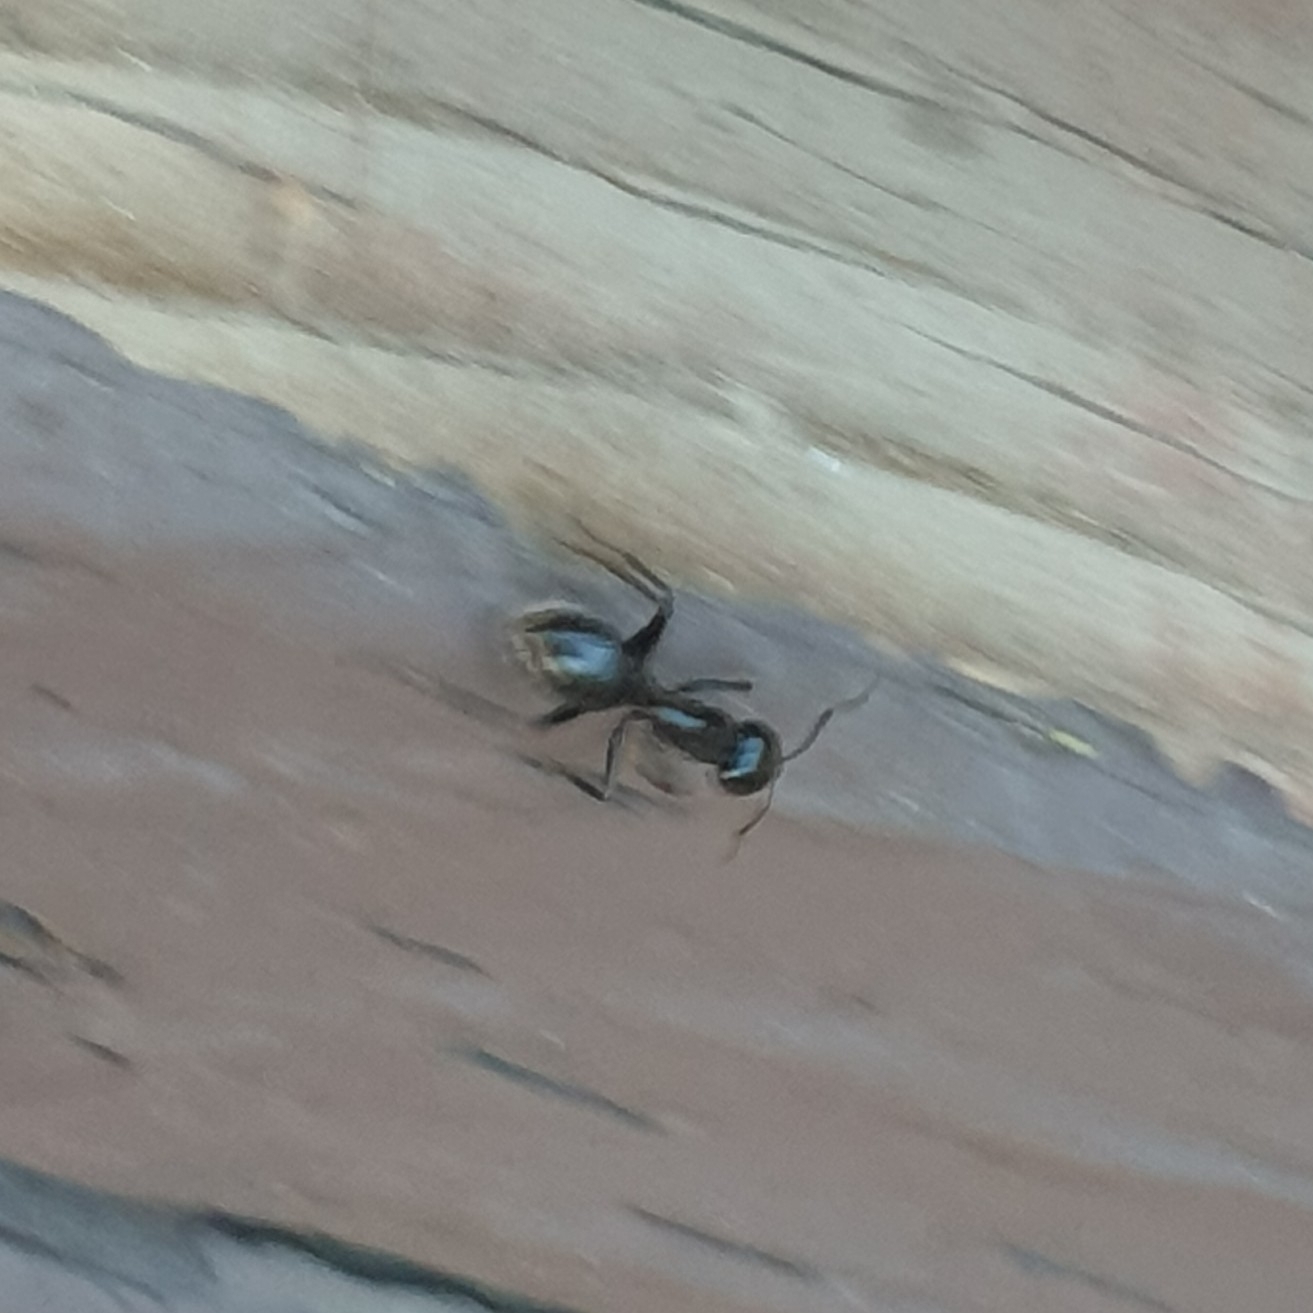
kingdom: Animalia
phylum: Arthropoda
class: Insecta
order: Hymenoptera
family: Formicidae
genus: Camponotus
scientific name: Camponotus
